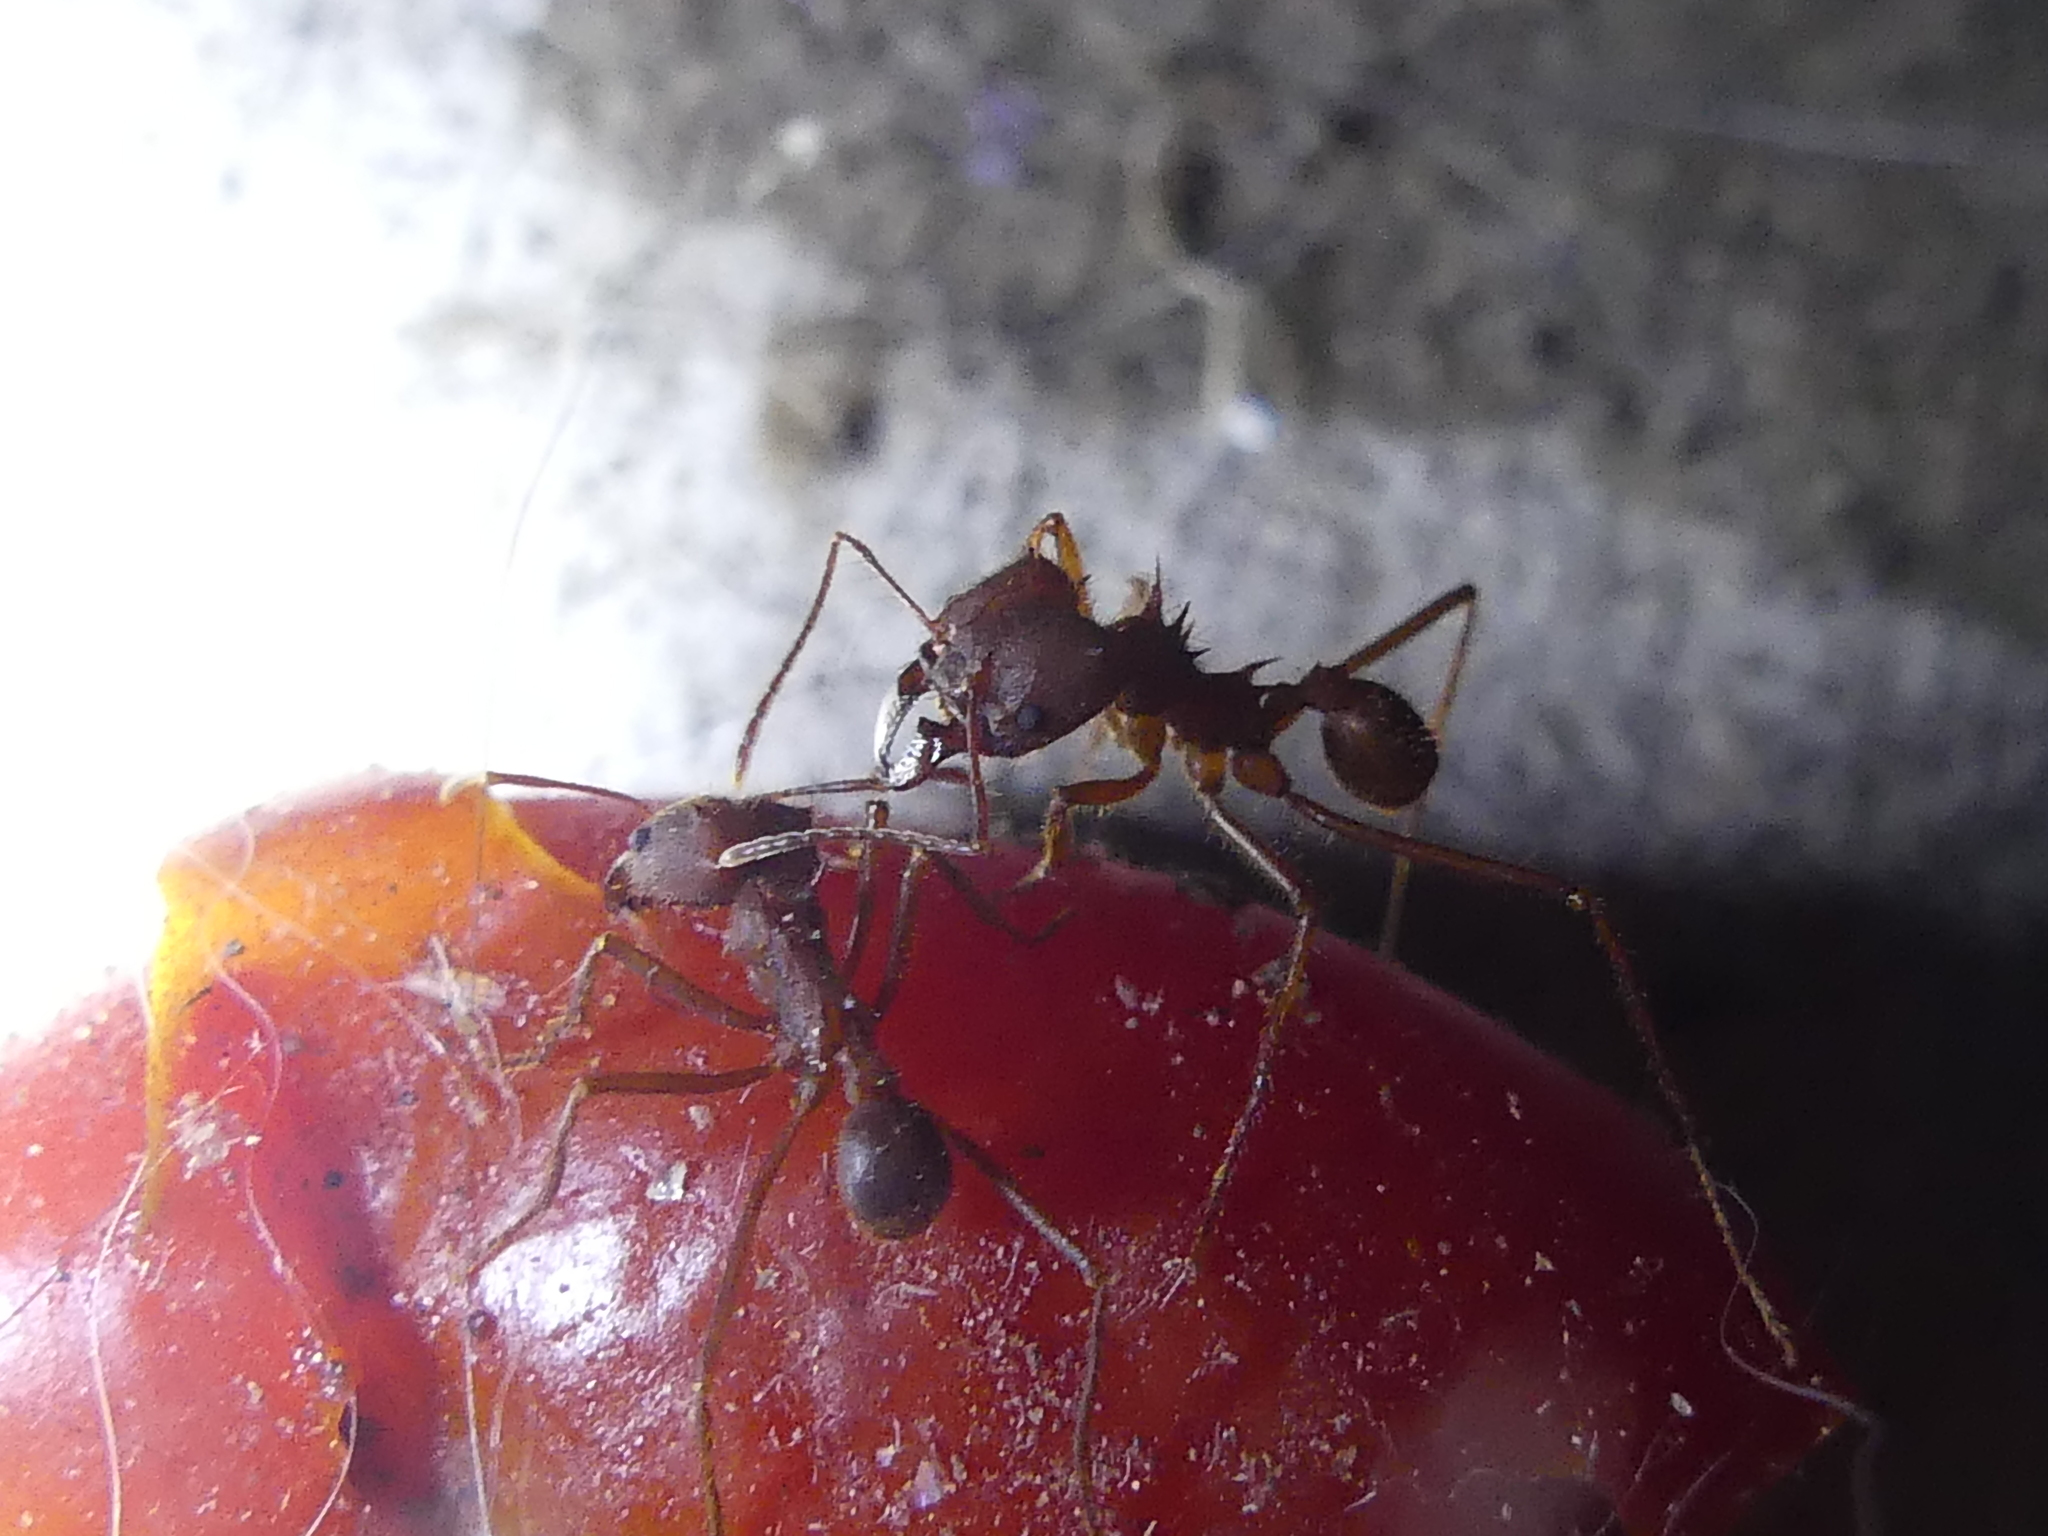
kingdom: Animalia
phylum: Arthropoda
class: Insecta
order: Hymenoptera
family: Formicidae
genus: Atta
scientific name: Atta texana
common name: Texas leafcutting ant
